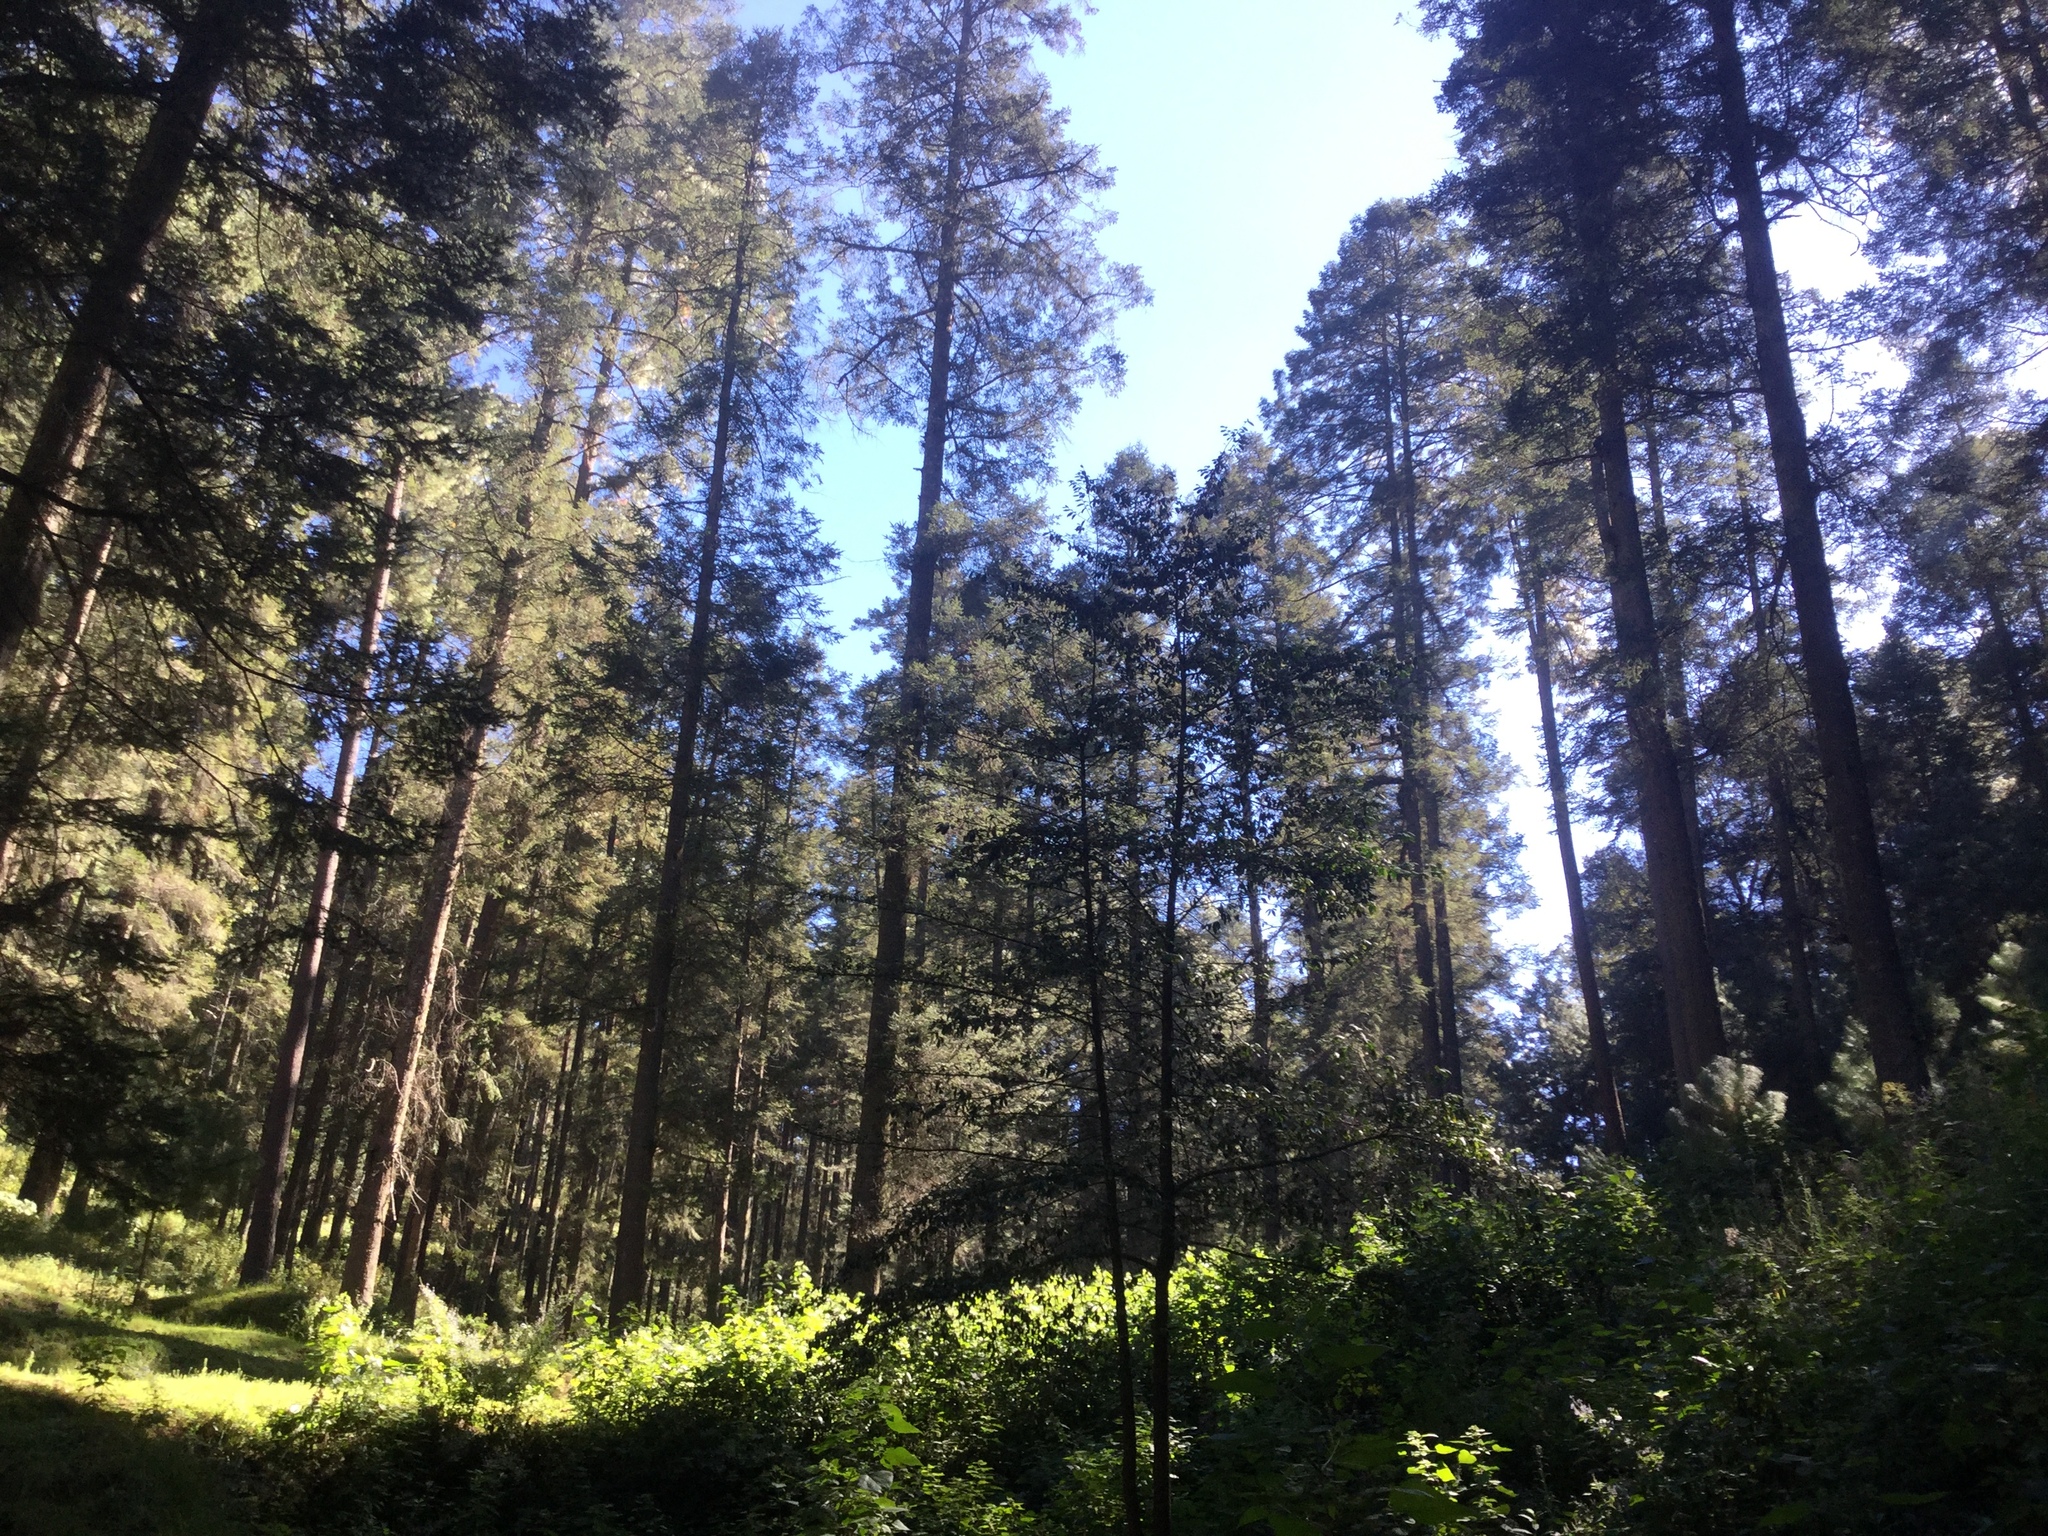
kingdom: Plantae
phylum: Tracheophyta
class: Pinopsida
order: Pinales
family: Pinaceae
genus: Abies
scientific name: Abies religiosa
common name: Sacred fir
